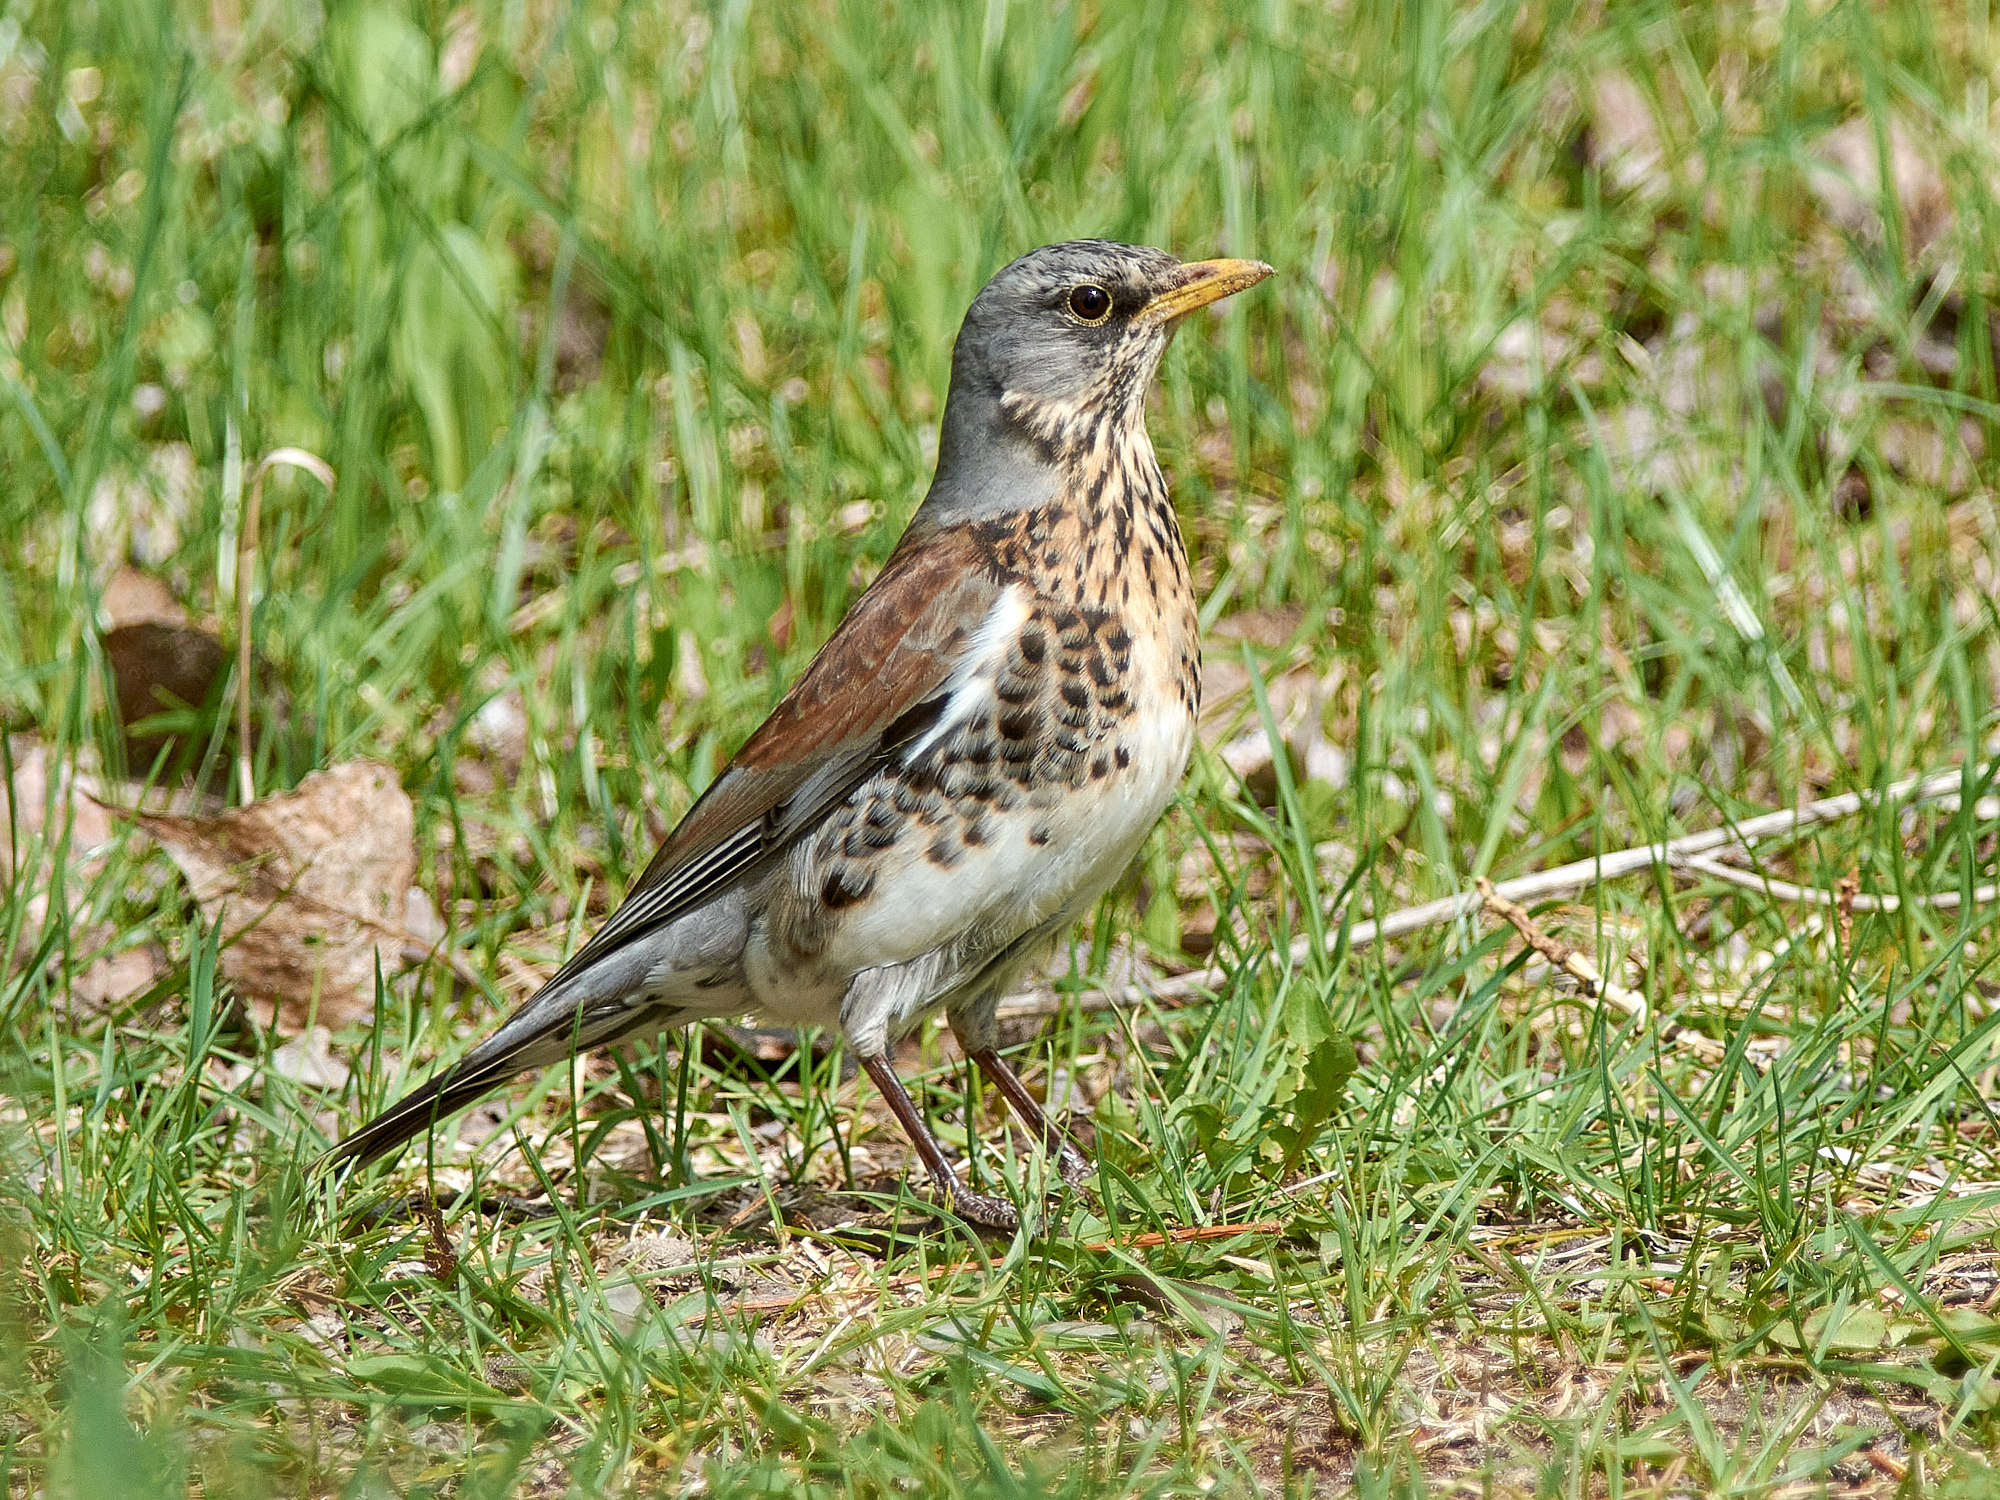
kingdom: Animalia
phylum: Chordata
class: Aves
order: Passeriformes
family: Turdidae
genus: Turdus
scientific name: Turdus pilaris
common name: Fieldfare
